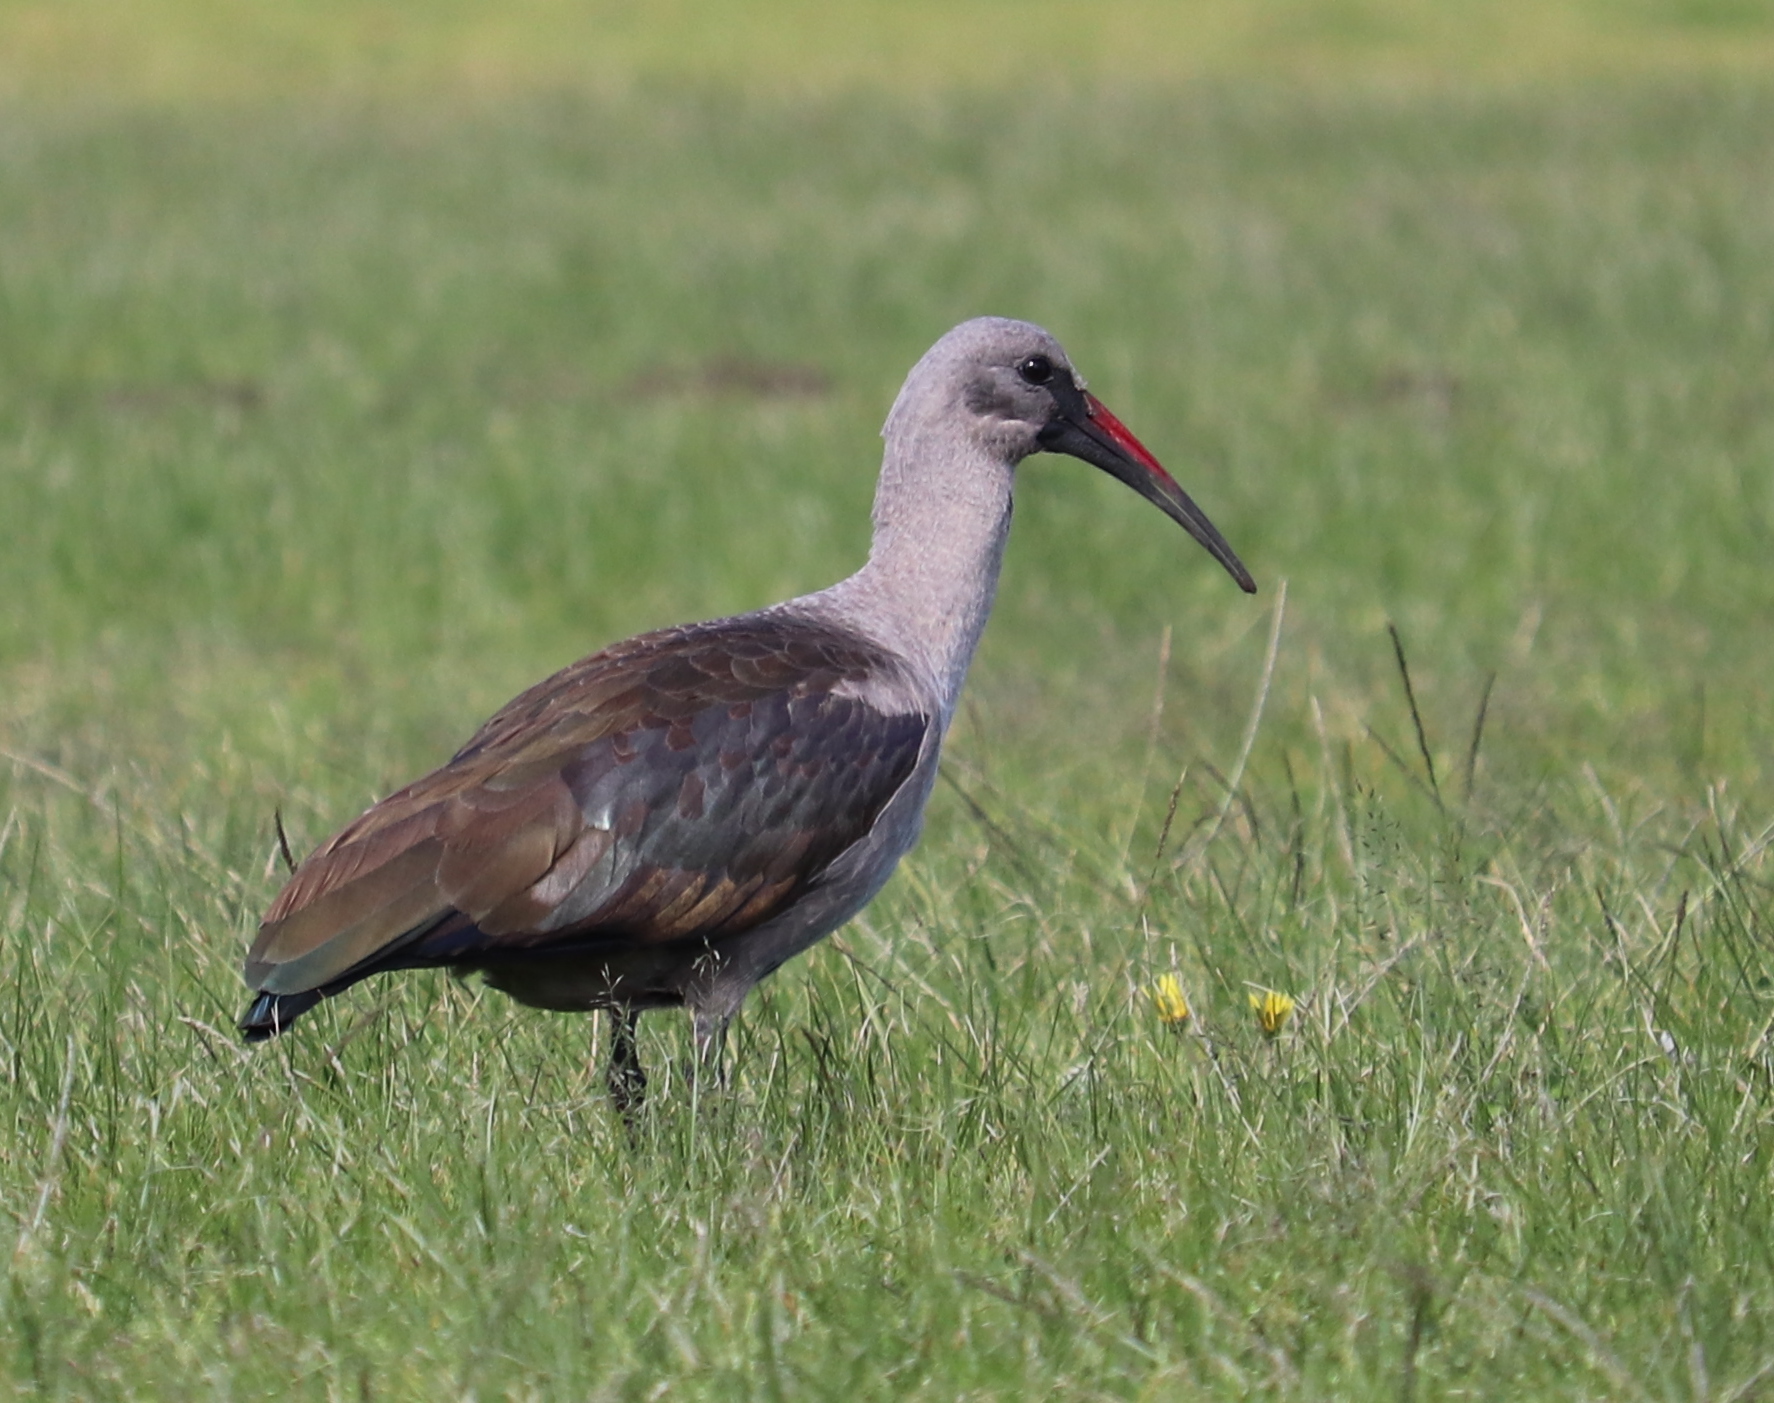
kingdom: Animalia
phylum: Chordata
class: Aves
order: Pelecaniformes
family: Threskiornithidae
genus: Bostrychia
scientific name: Bostrychia hagedash
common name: Hadada ibis
